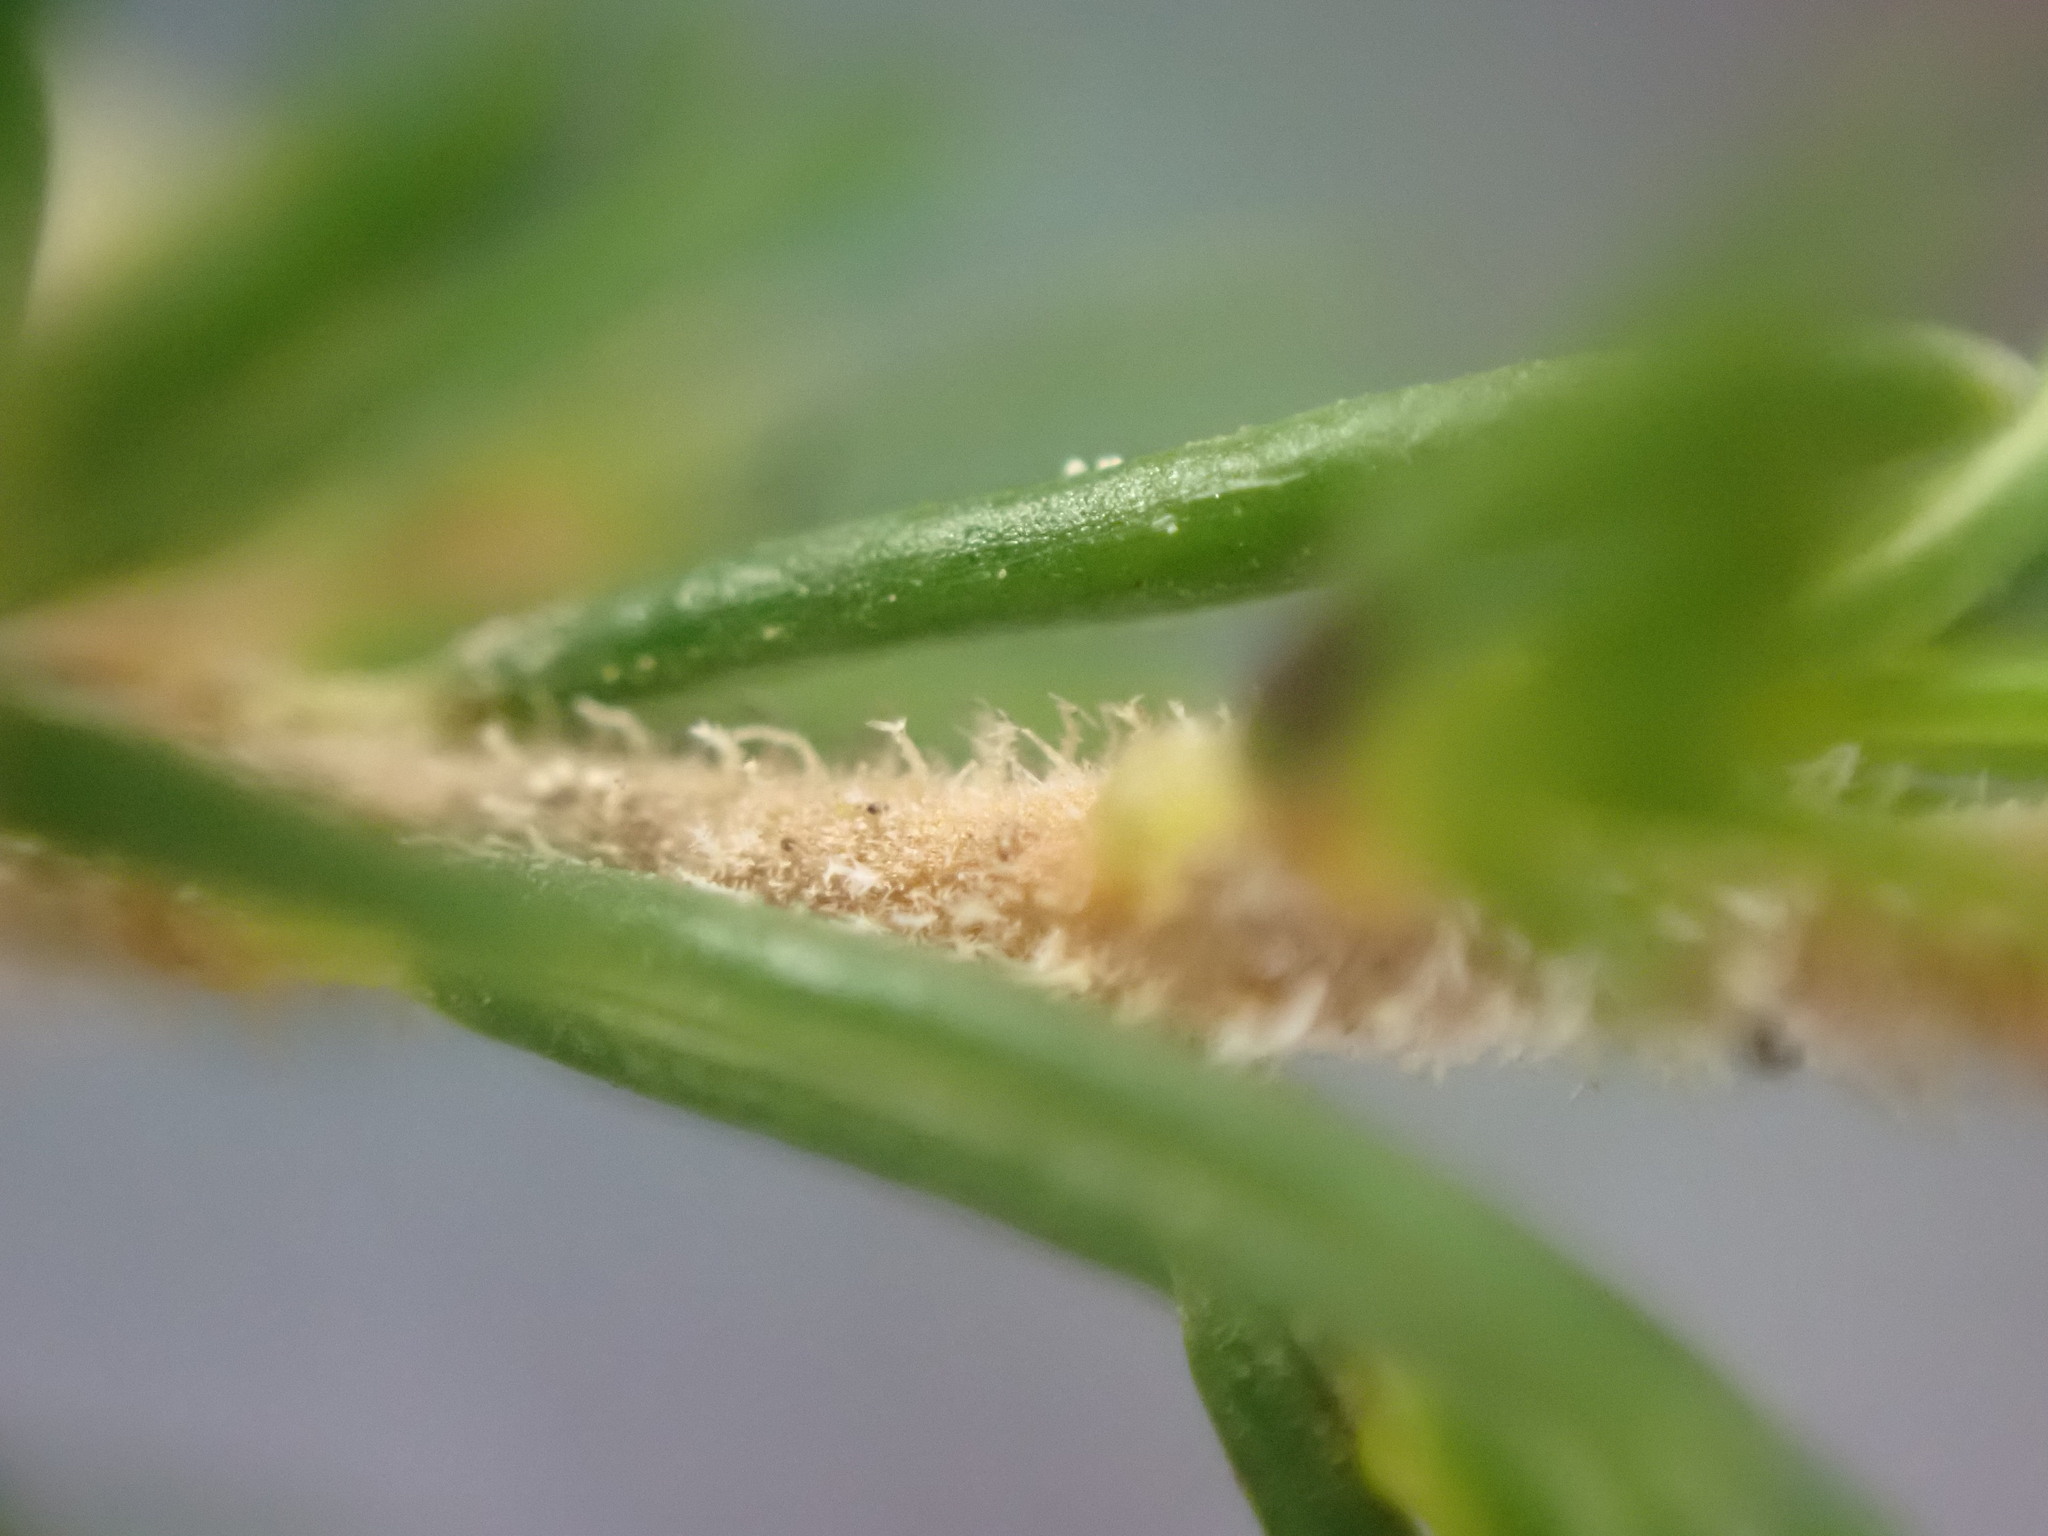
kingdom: Plantae
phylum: Tracheophyta
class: Magnoliopsida
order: Ericales
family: Ericaceae
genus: Erica
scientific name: Erica arborea
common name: Tree heath
